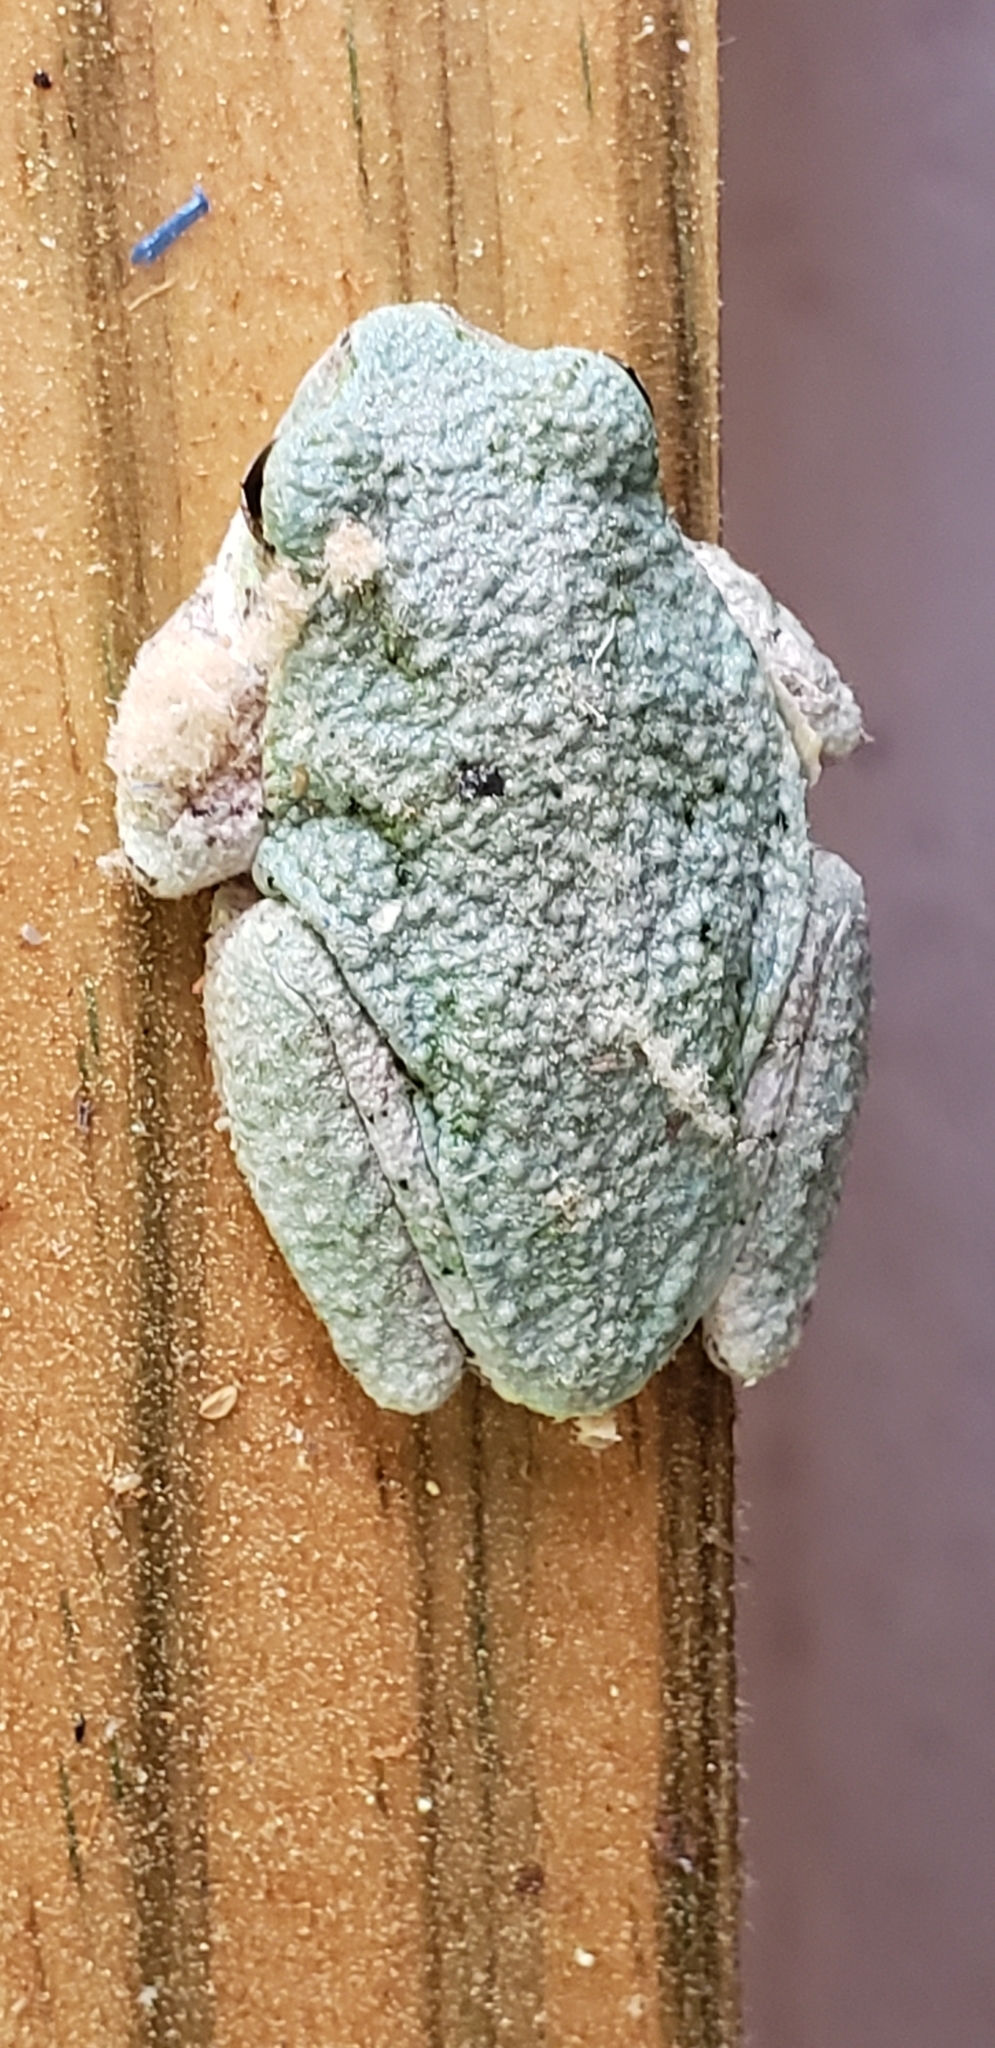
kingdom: Animalia
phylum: Chordata
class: Amphibia
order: Anura
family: Hylidae
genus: Dryophytes
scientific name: Dryophytes versicolor
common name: Gray treefrog
